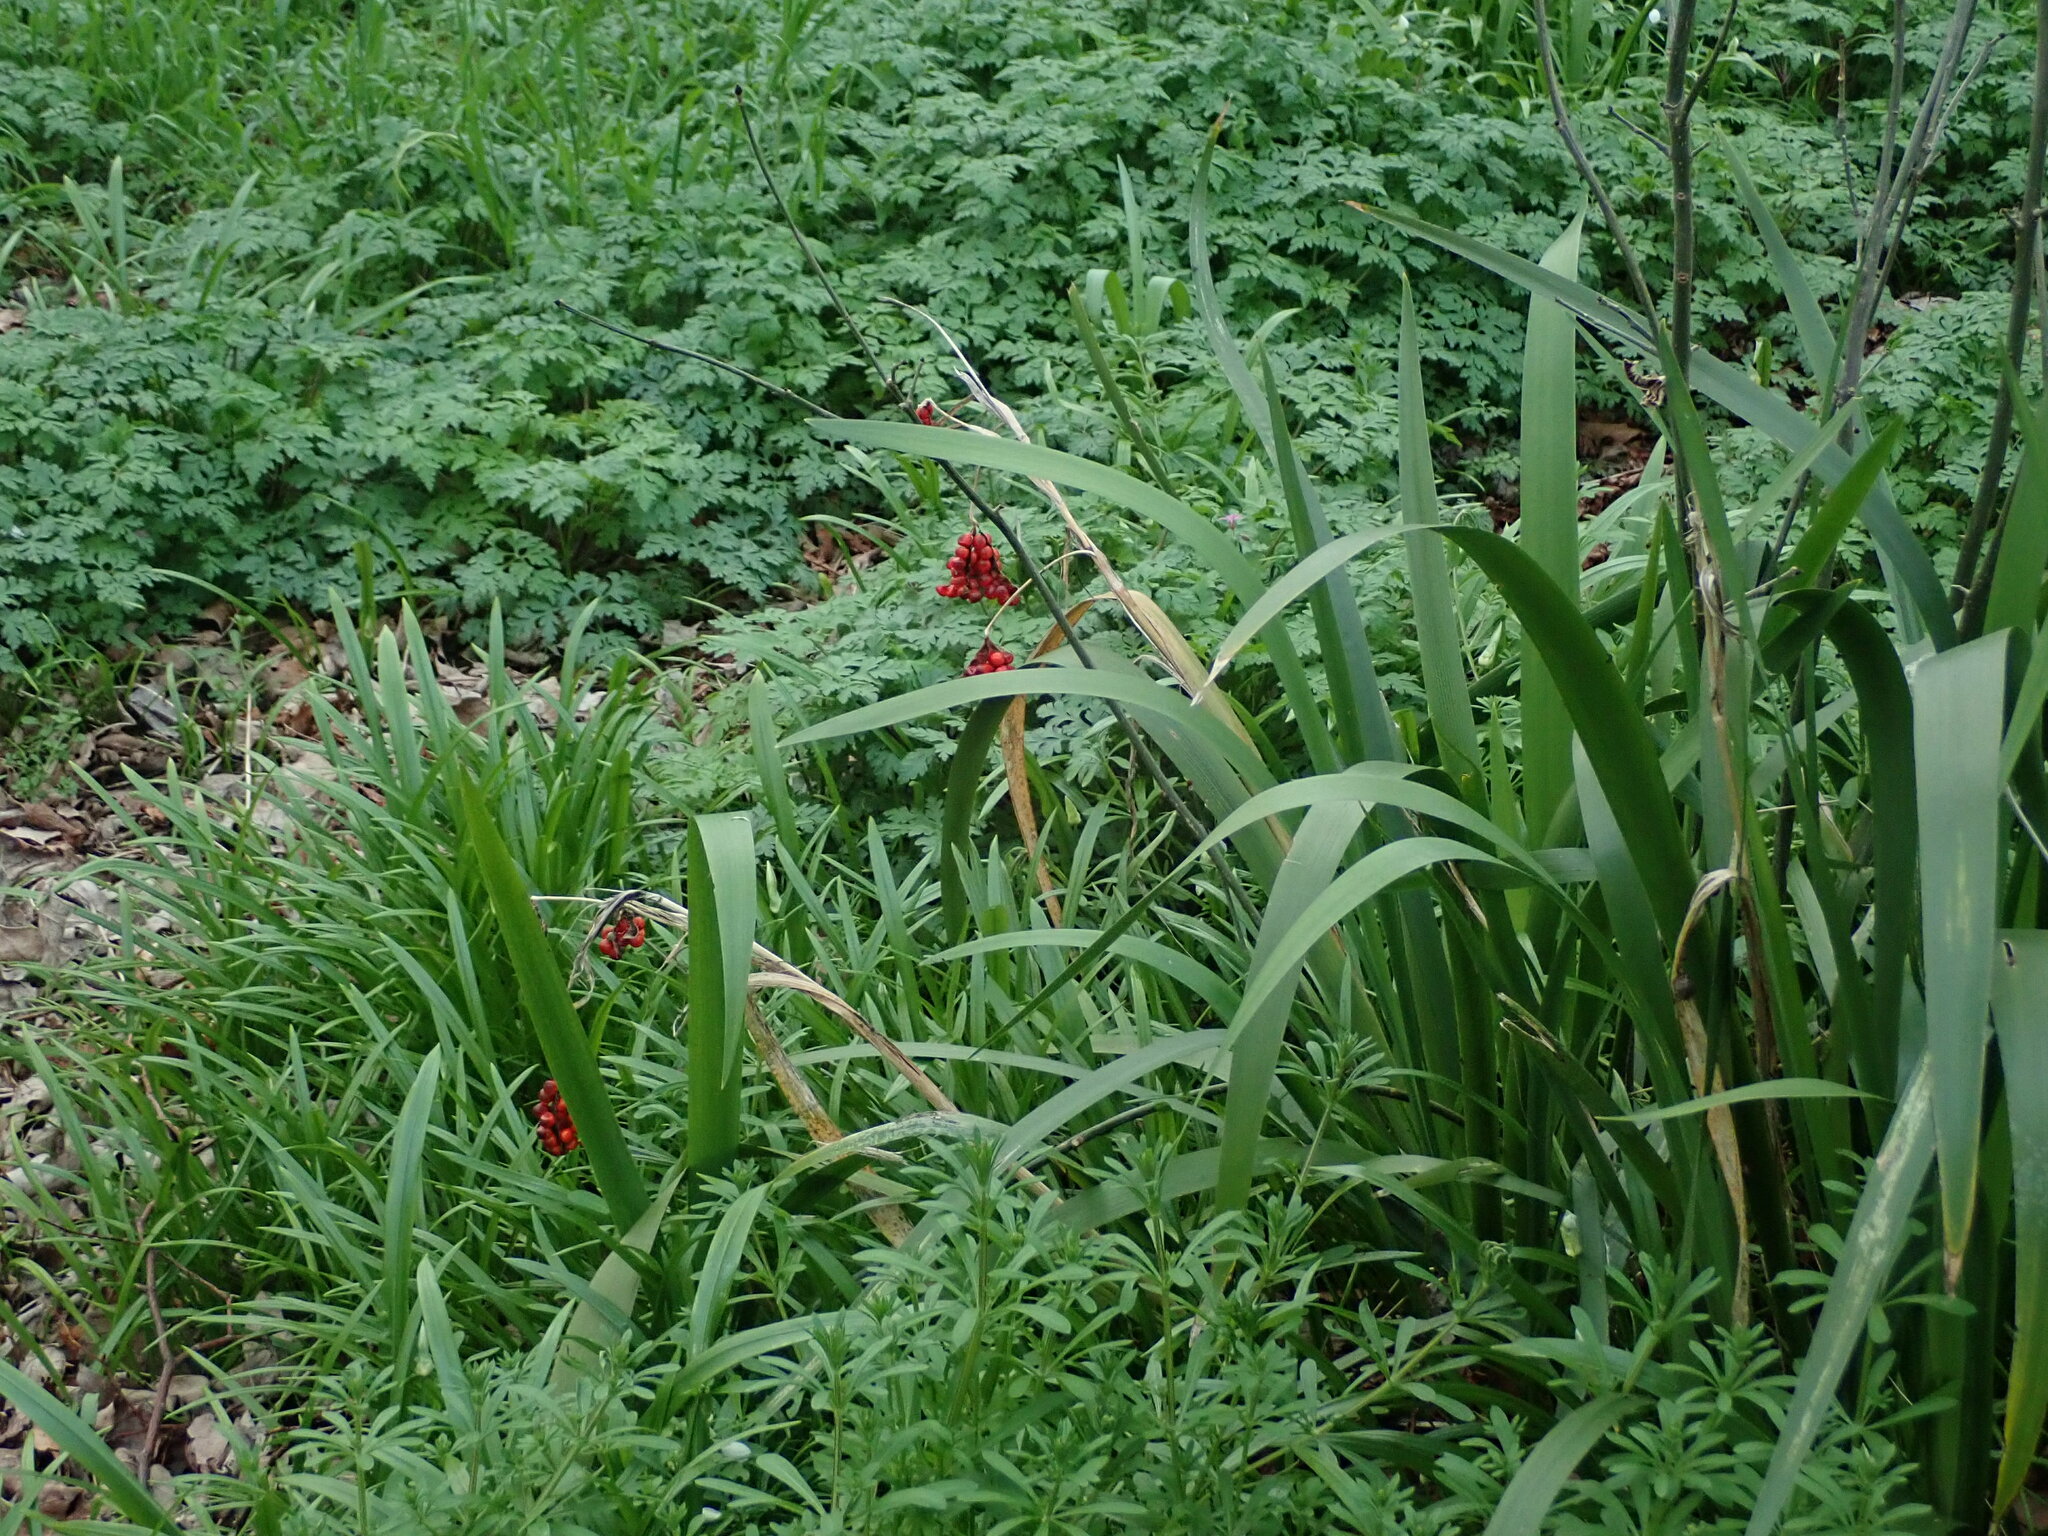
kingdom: Plantae
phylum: Tracheophyta
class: Liliopsida
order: Asparagales
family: Iridaceae
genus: Iris
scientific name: Iris foetidissima
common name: Stinking iris
